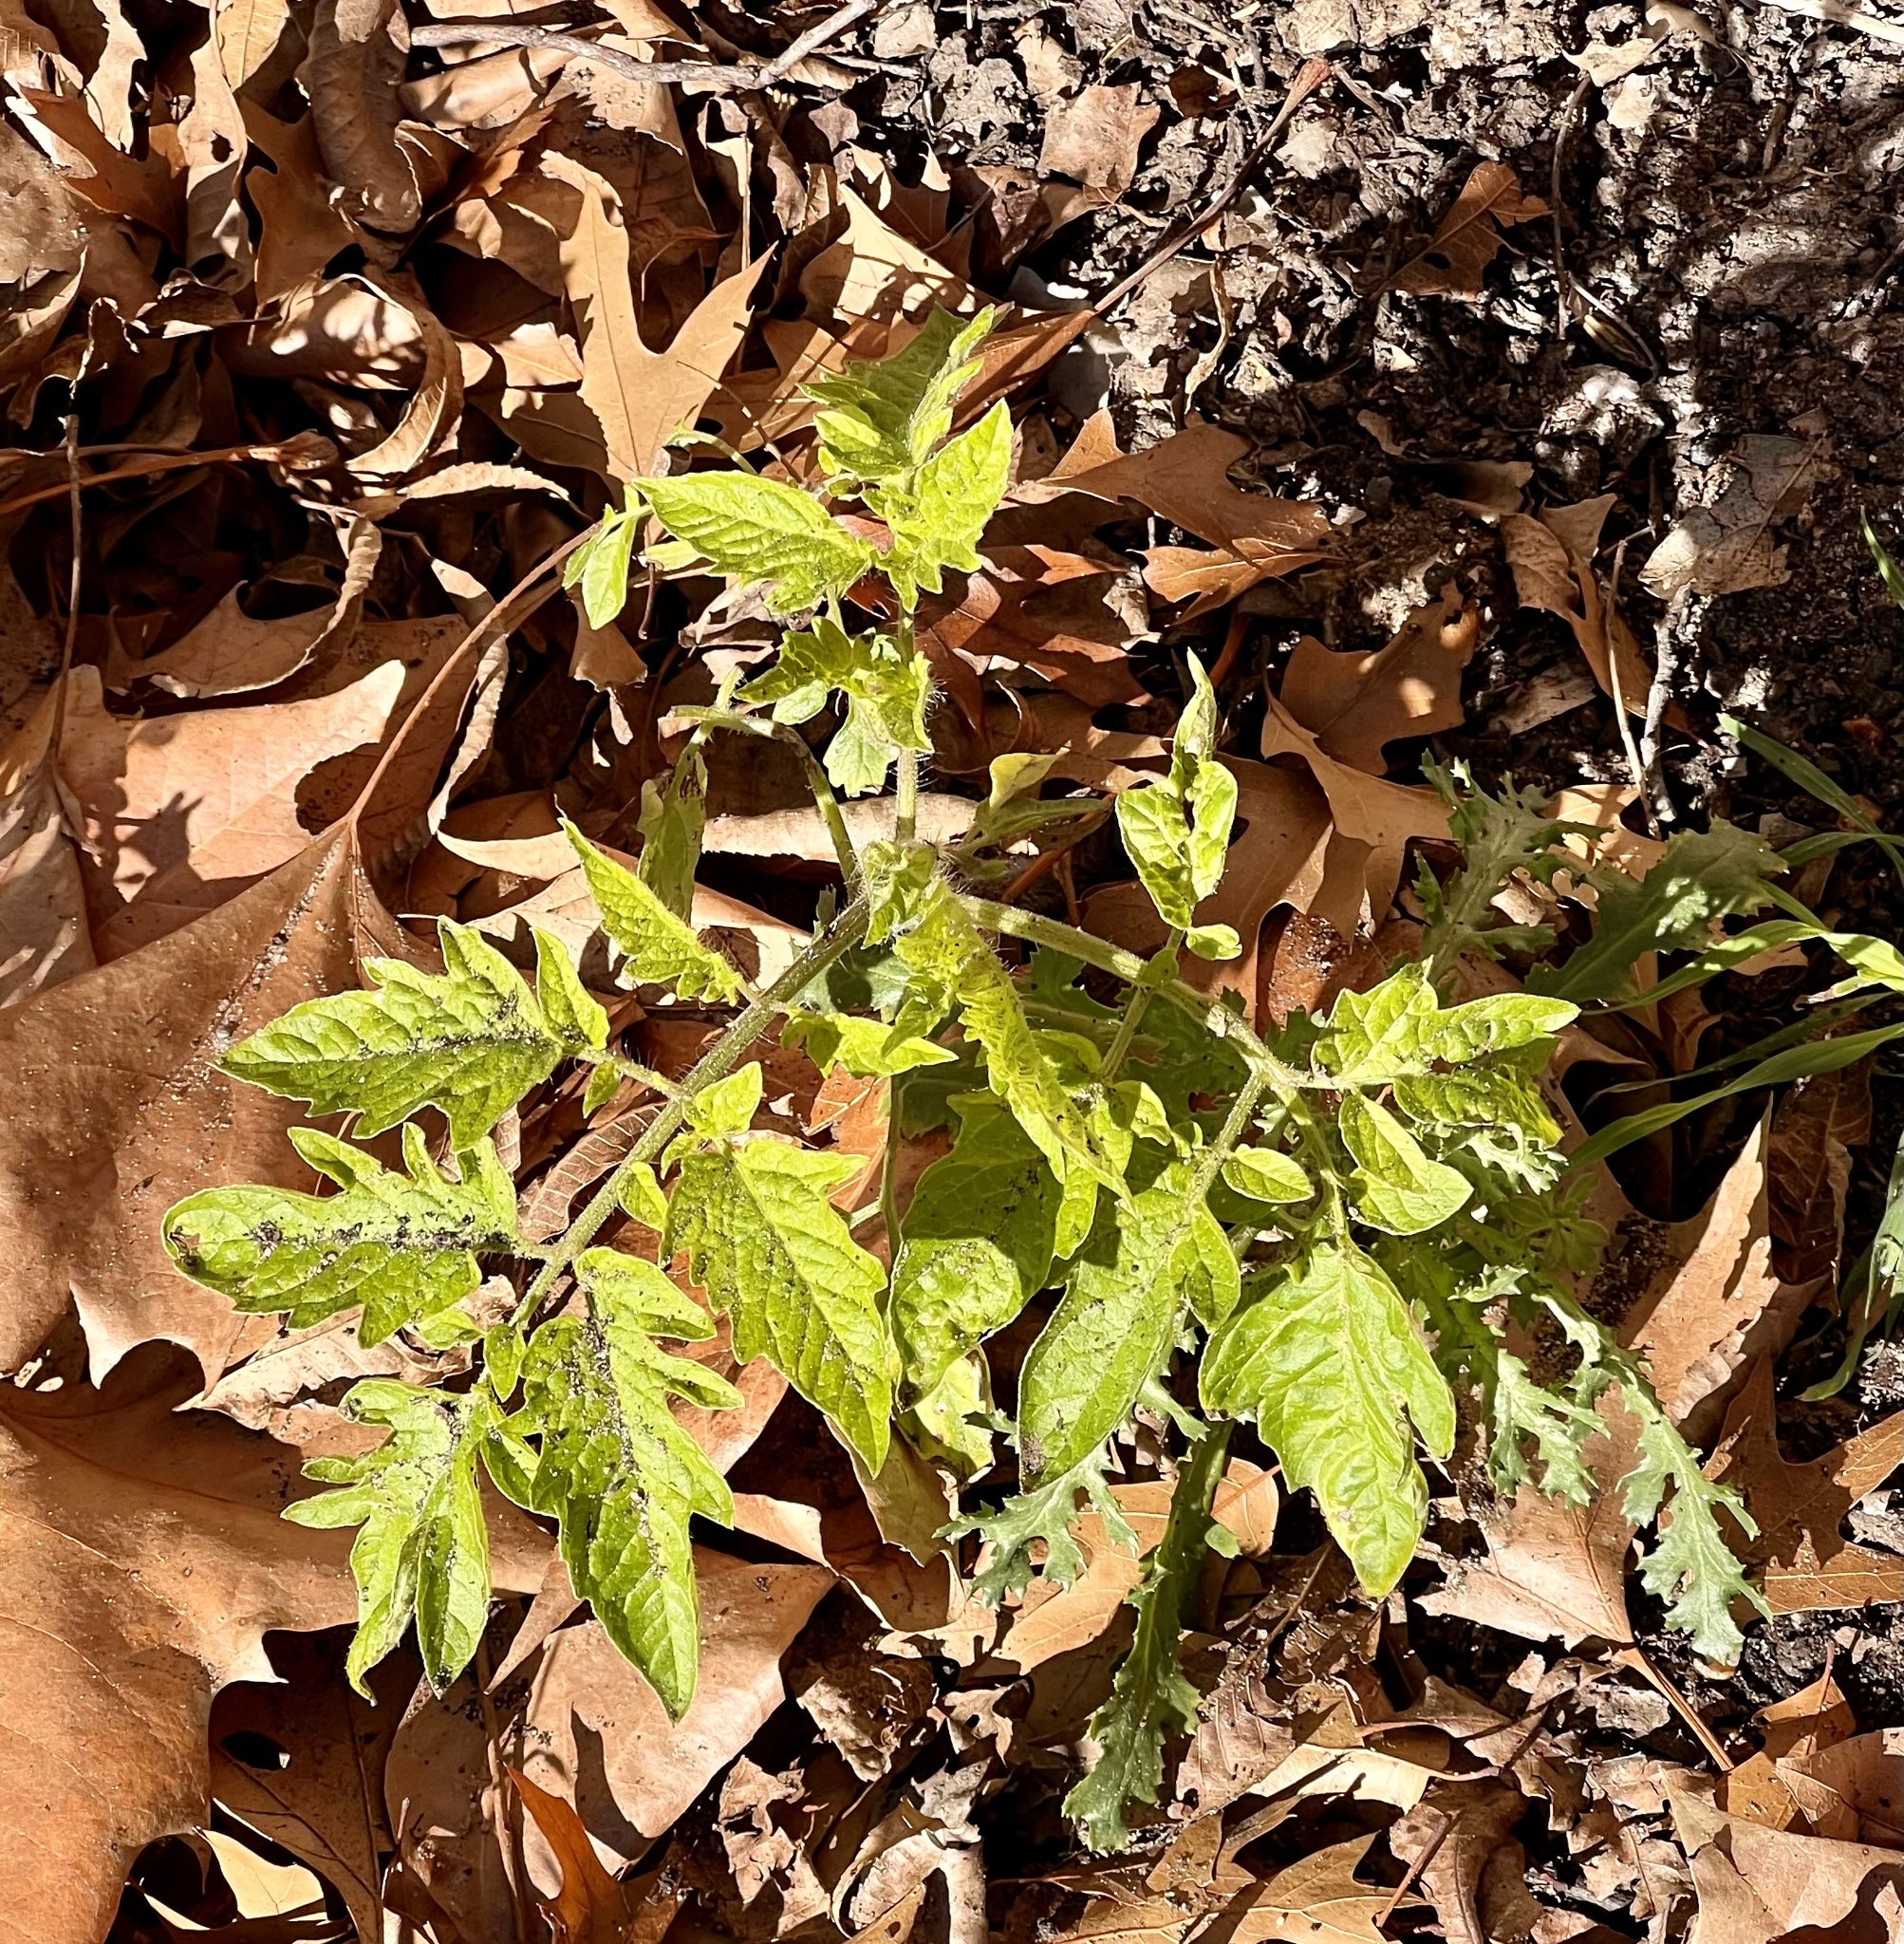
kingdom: Plantae
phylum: Tracheophyta
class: Magnoliopsida
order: Solanales
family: Solanaceae
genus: Solanum
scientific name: Solanum lycopersicum
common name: Garden tomato
